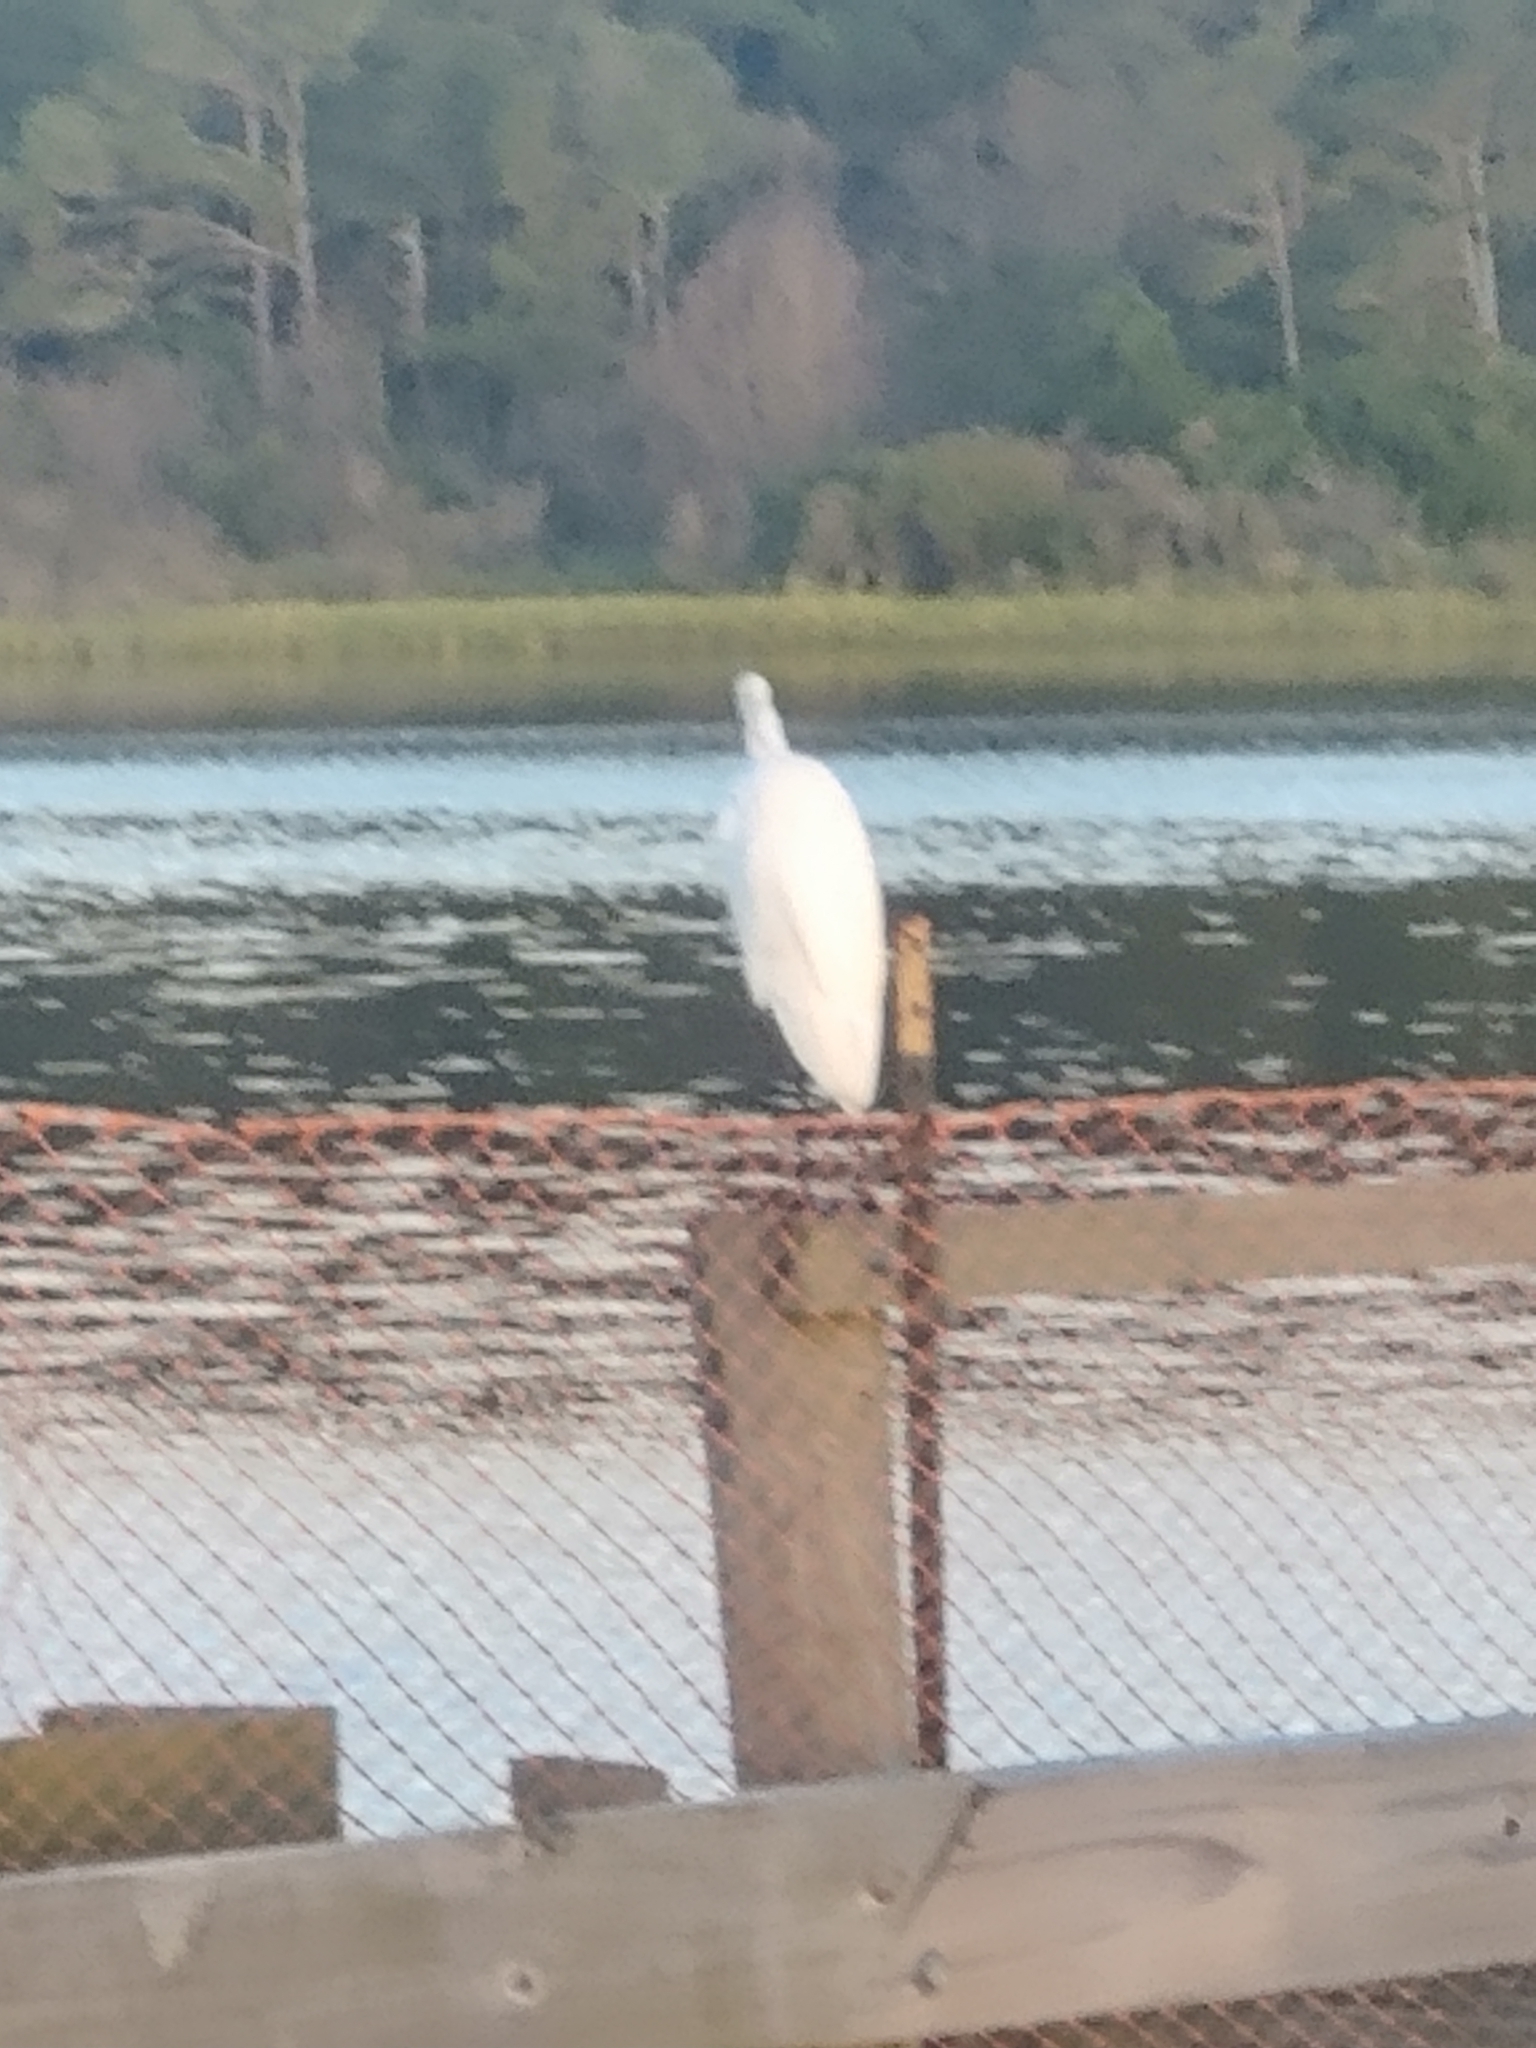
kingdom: Animalia
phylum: Chordata
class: Aves
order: Pelecaniformes
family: Ardeidae
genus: Ardea
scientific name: Ardea alba
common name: Great egret
